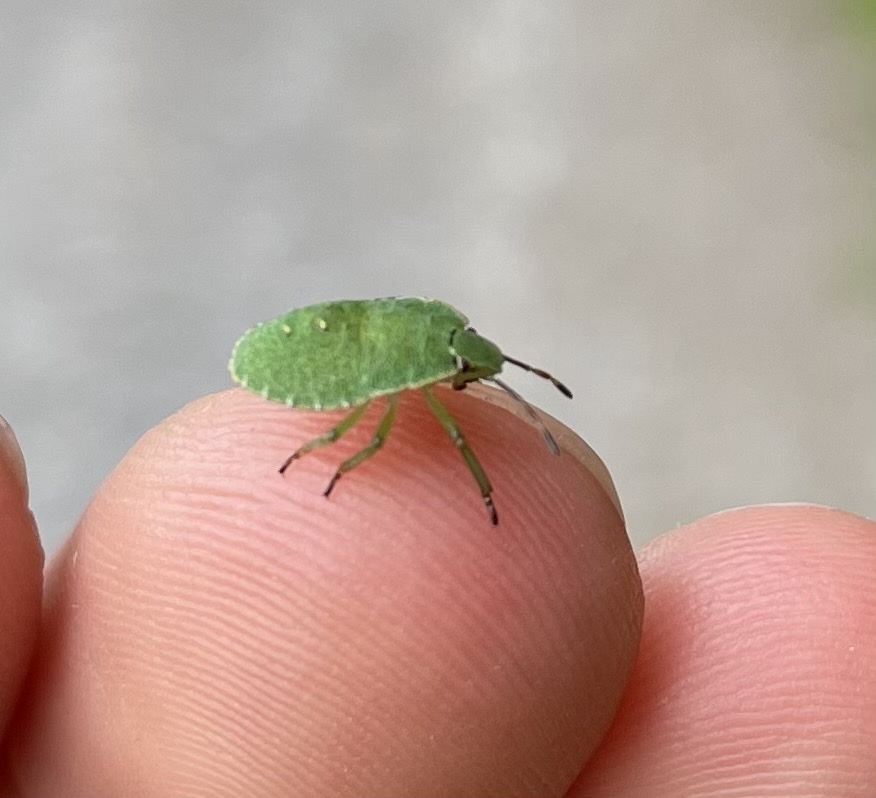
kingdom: Animalia
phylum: Arthropoda
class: Insecta
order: Hemiptera
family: Pentatomidae
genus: Palomena
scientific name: Palomena prasina
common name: Green shieldbug
